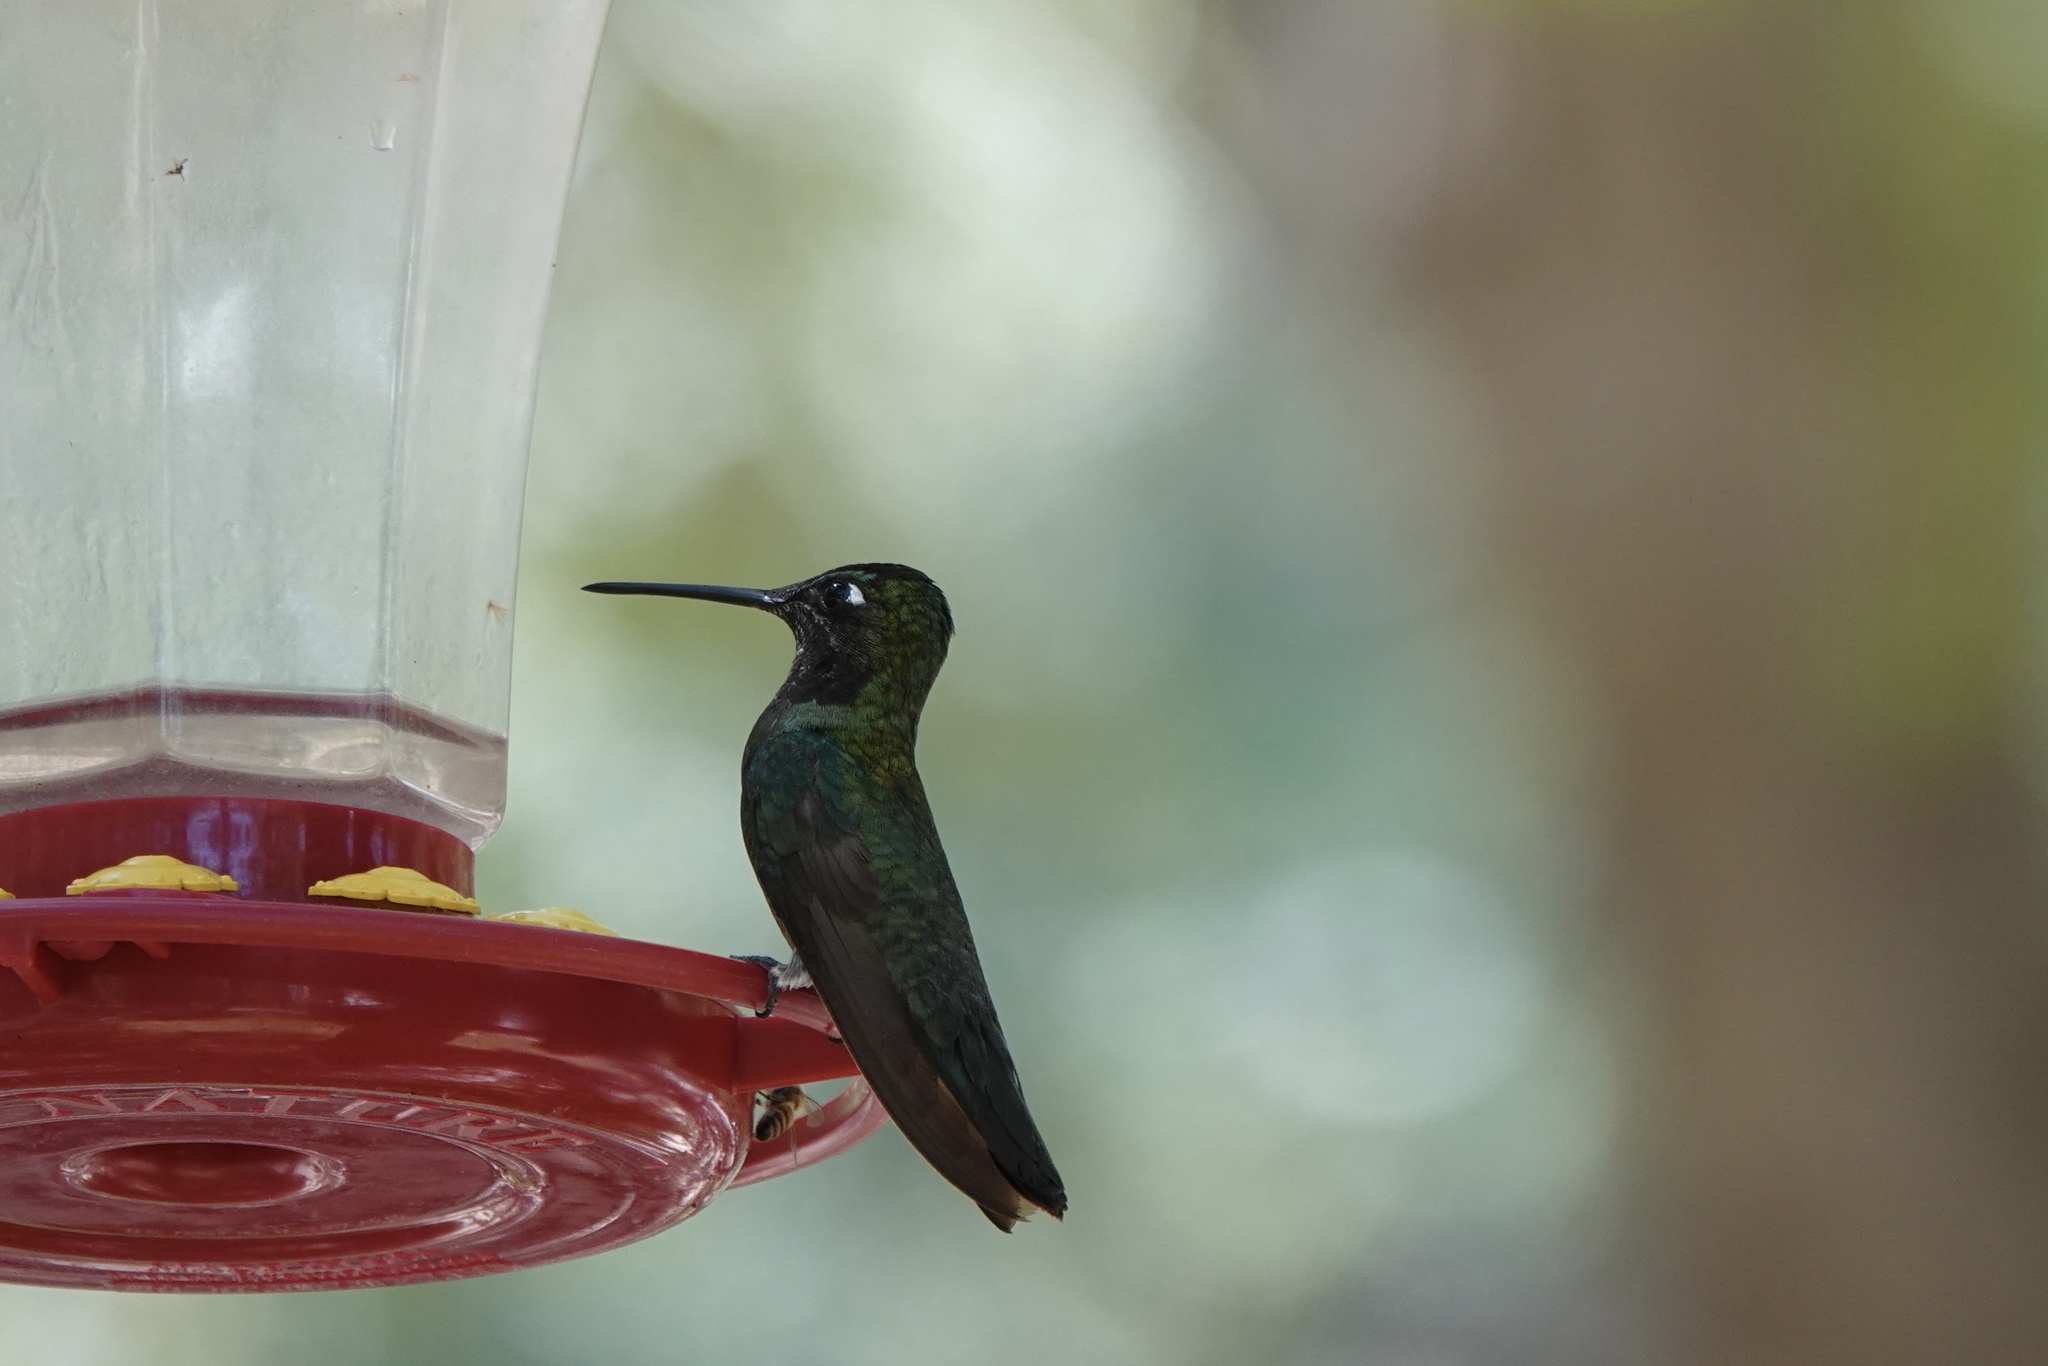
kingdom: Animalia
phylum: Chordata
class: Aves
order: Apodiformes
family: Trochilidae
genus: Eugenes
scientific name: Eugenes fulgens
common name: Magnificent hummingbird
